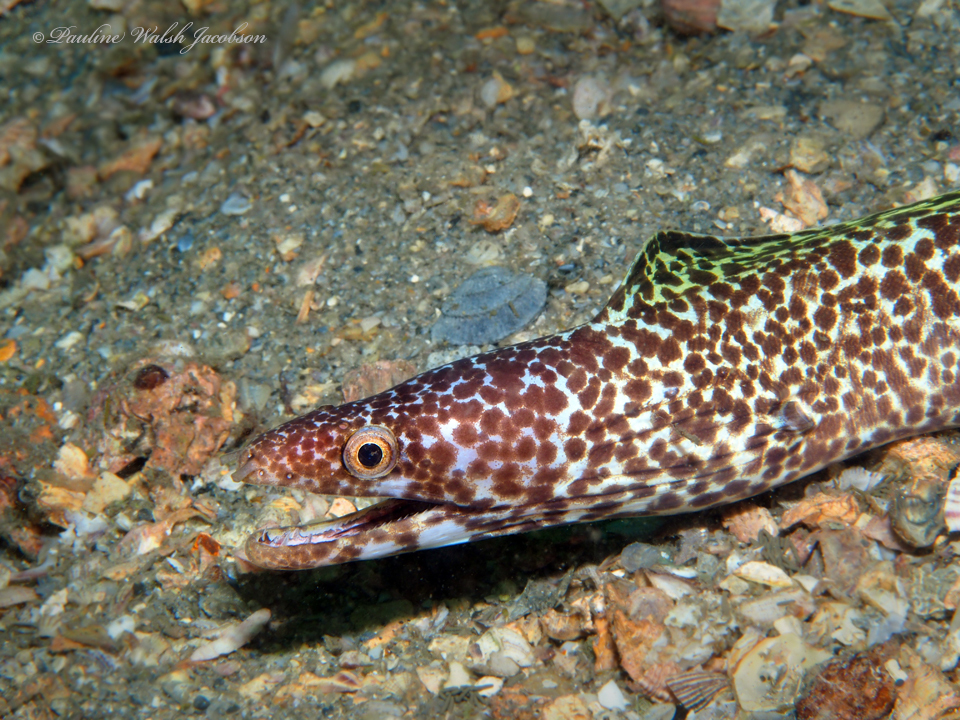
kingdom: Animalia
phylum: Chordata
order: Anguilliformes
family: Muraenidae
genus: Gymnothorax
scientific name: Gymnothorax moringa
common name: Spotted moray
